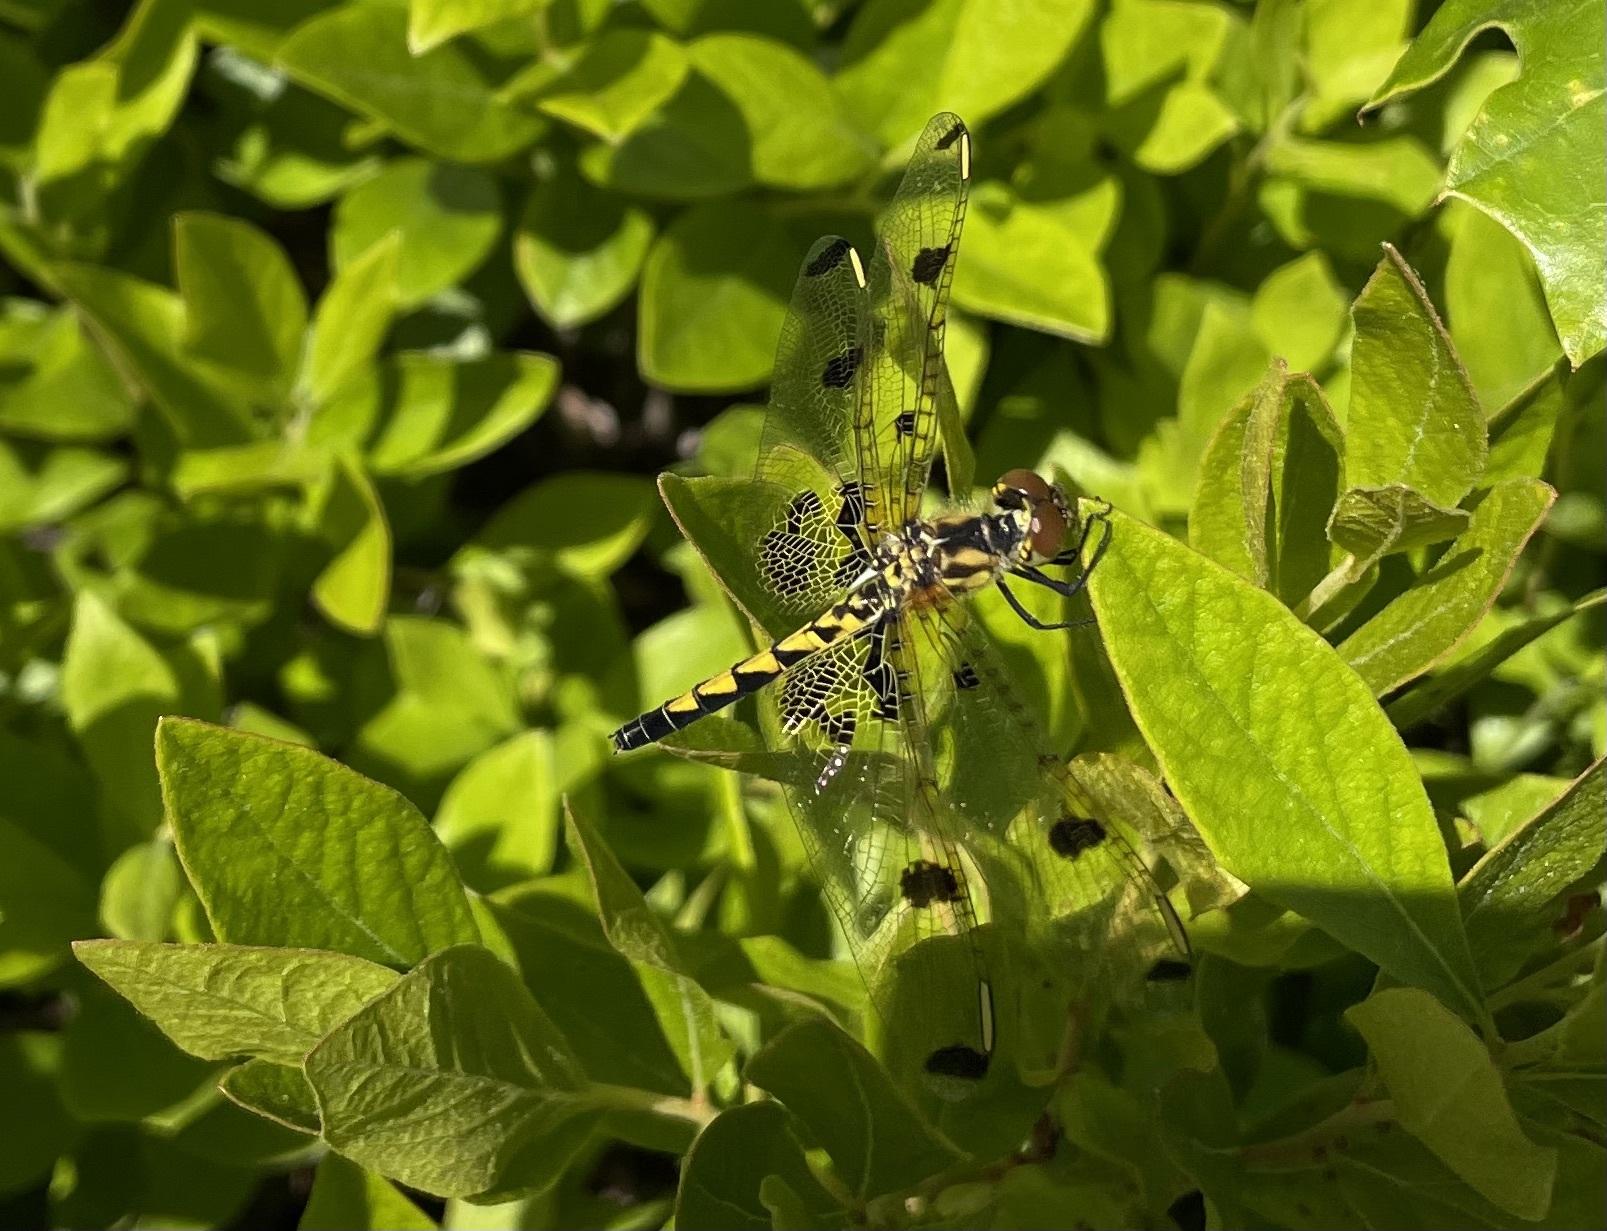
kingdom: Animalia
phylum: Arthropoda
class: Insecta
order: Odonata
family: Libellulidae
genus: Celithemis
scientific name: Celithemis elisa
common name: Calico pennant
